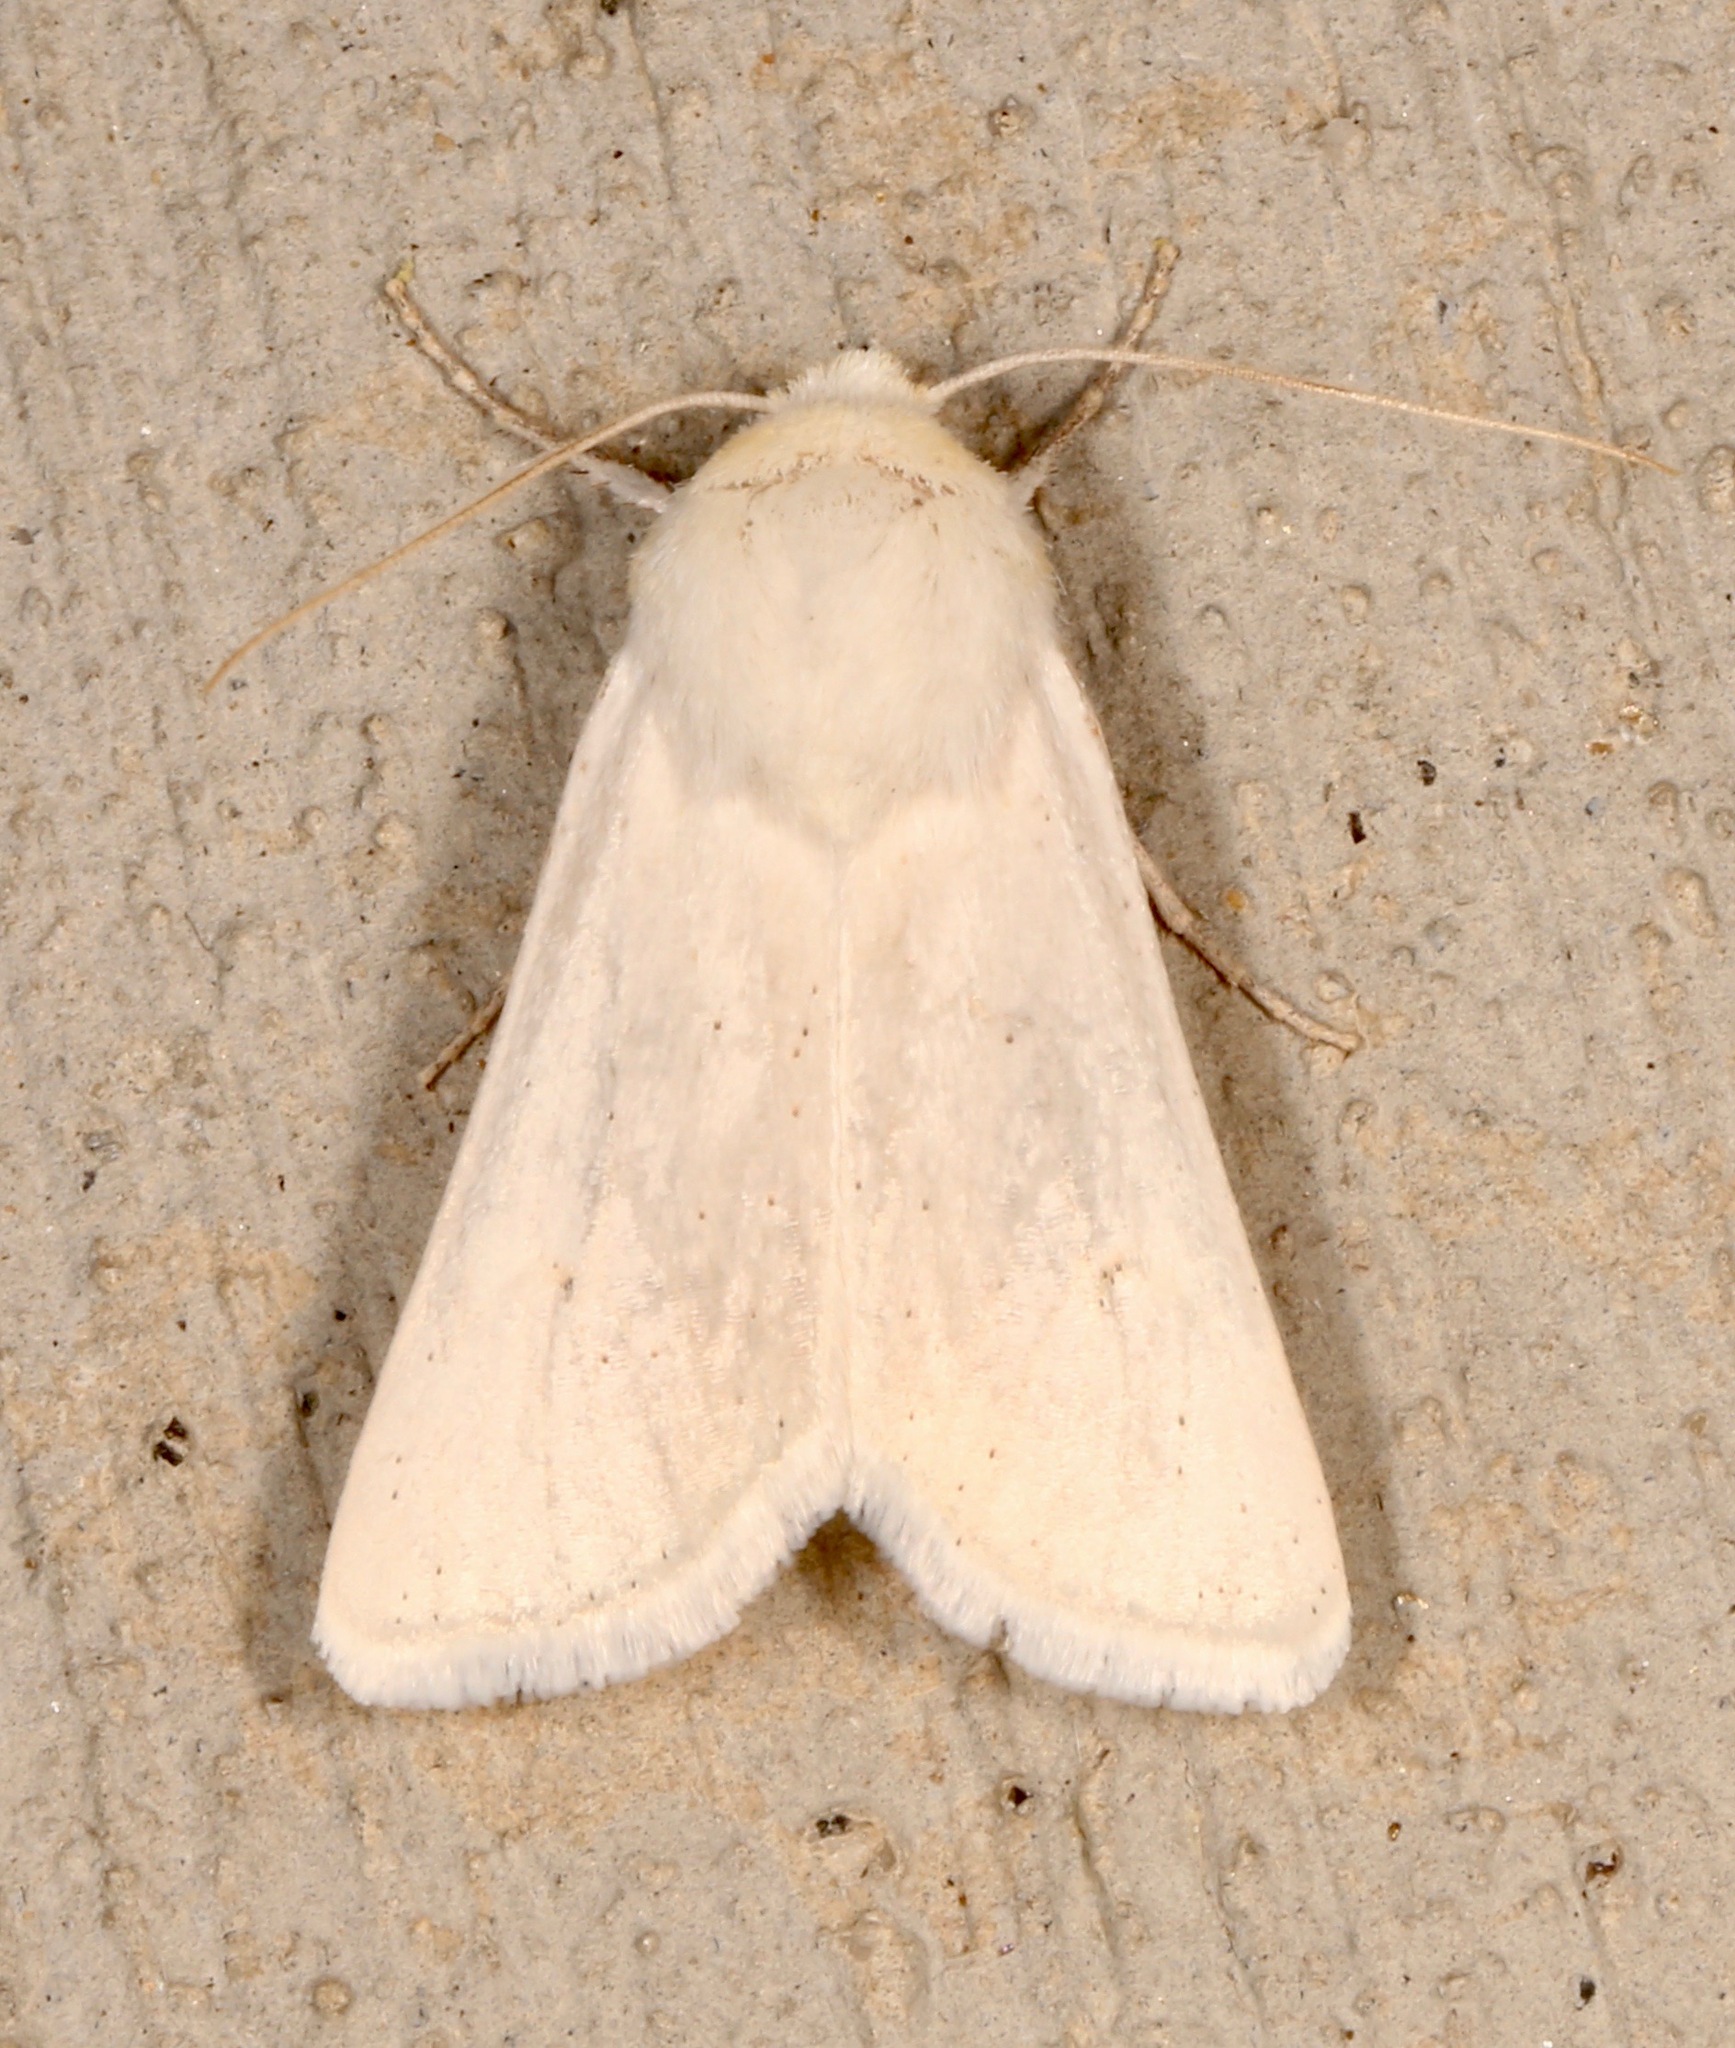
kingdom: Animalia
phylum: Arthropoda
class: Insecta
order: Lepidoptera
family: Noctuidae
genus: Protogygia
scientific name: Protogygia album
